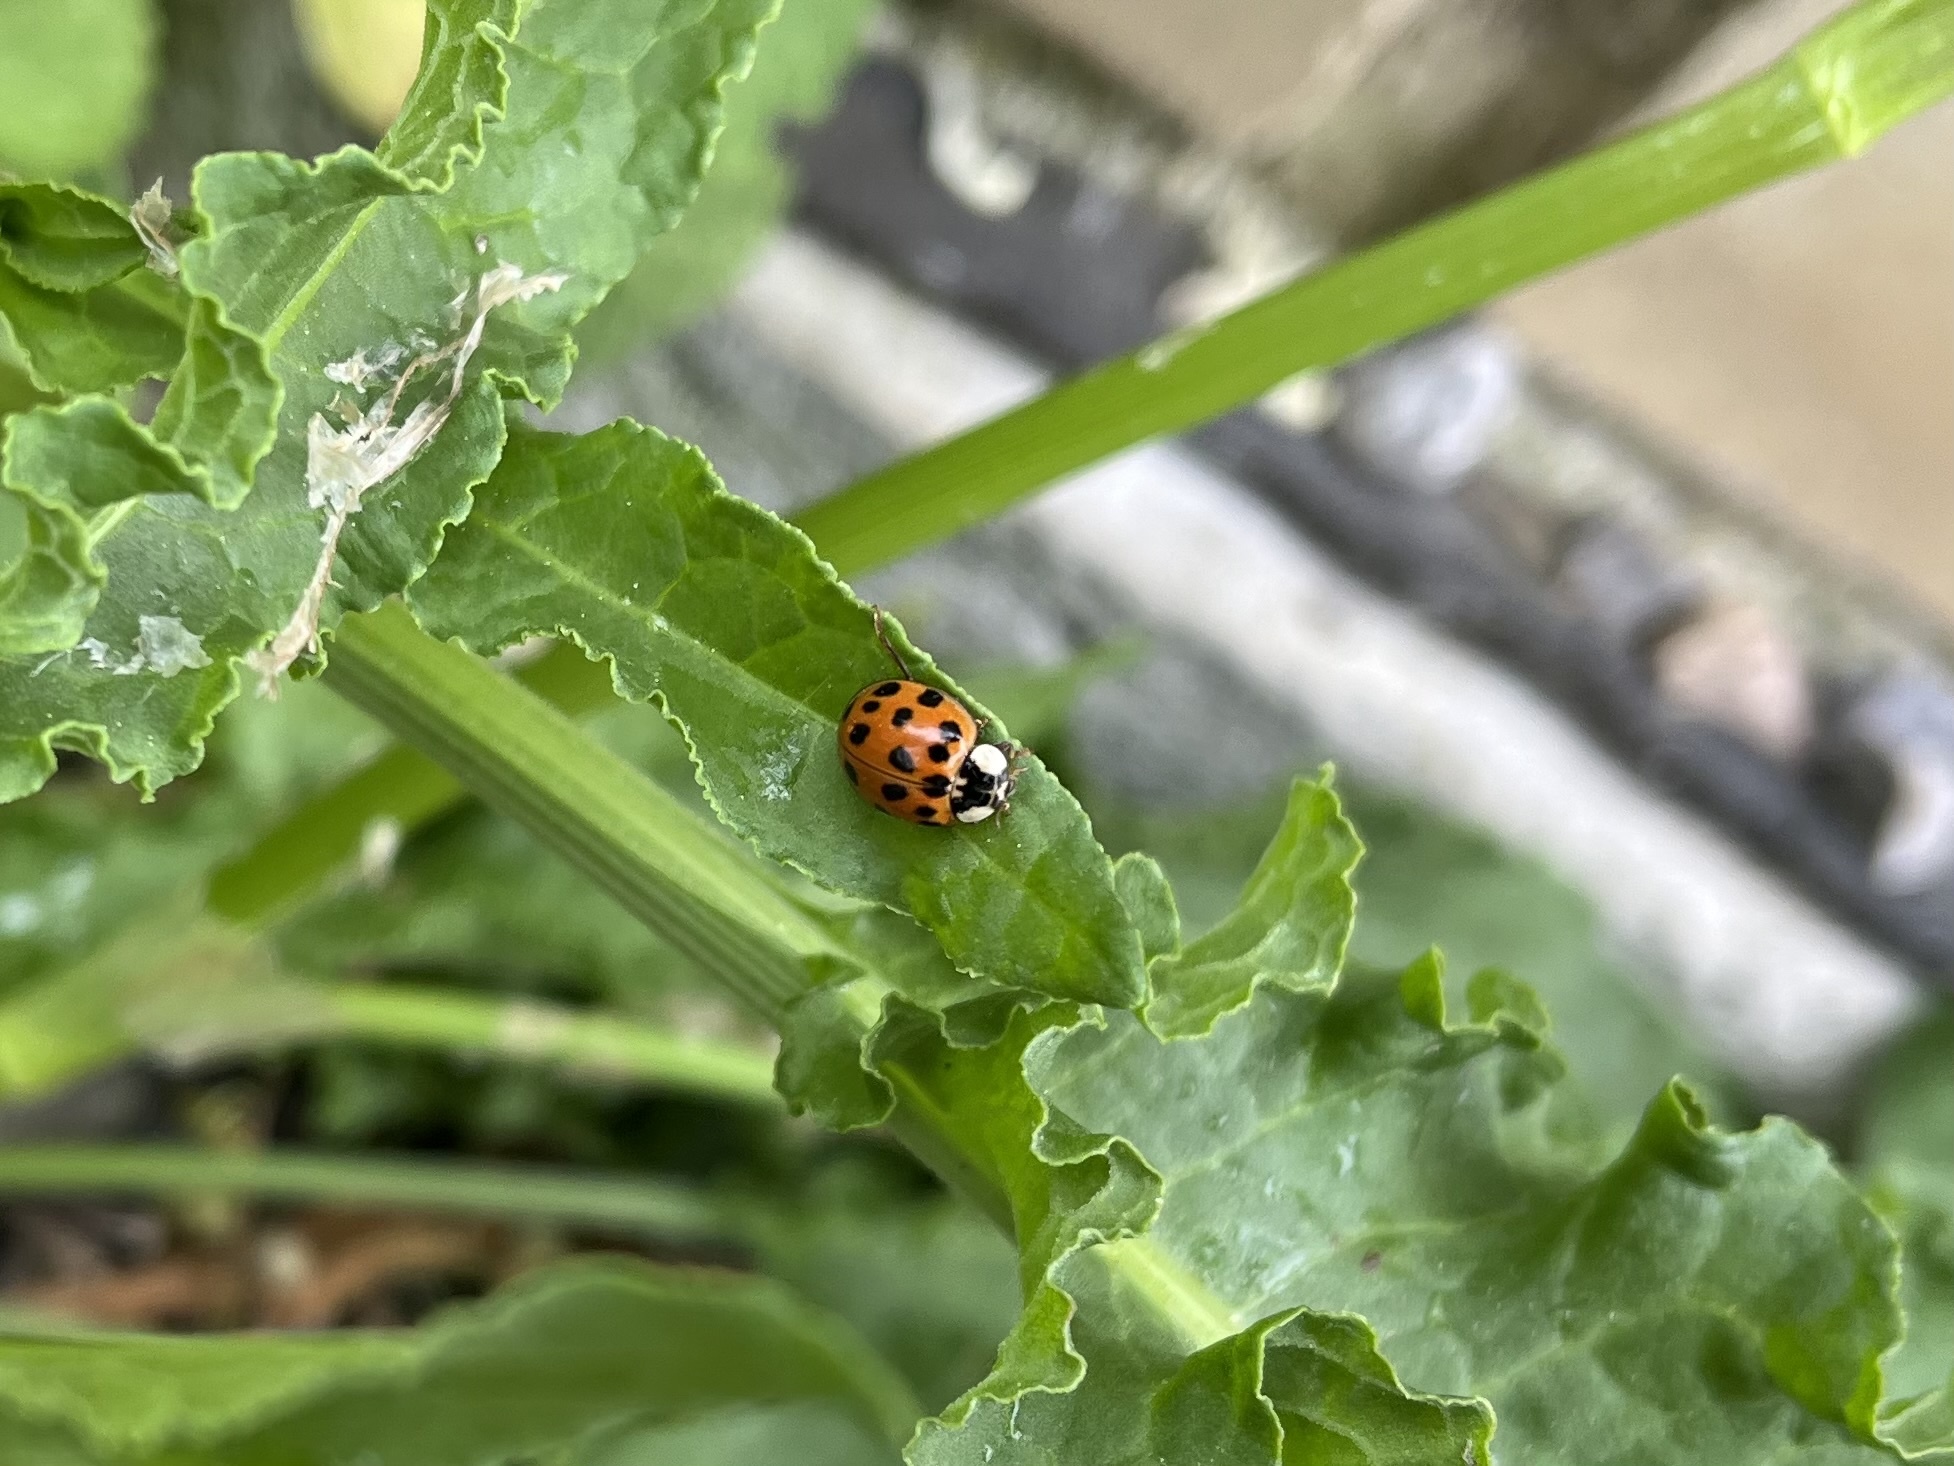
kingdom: Animalia
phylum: Arthropoda
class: Insecta
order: Coleoptera
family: Coccinellidae
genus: Harmonia
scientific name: Harmonia axyridis
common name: Harlequin ladybird
